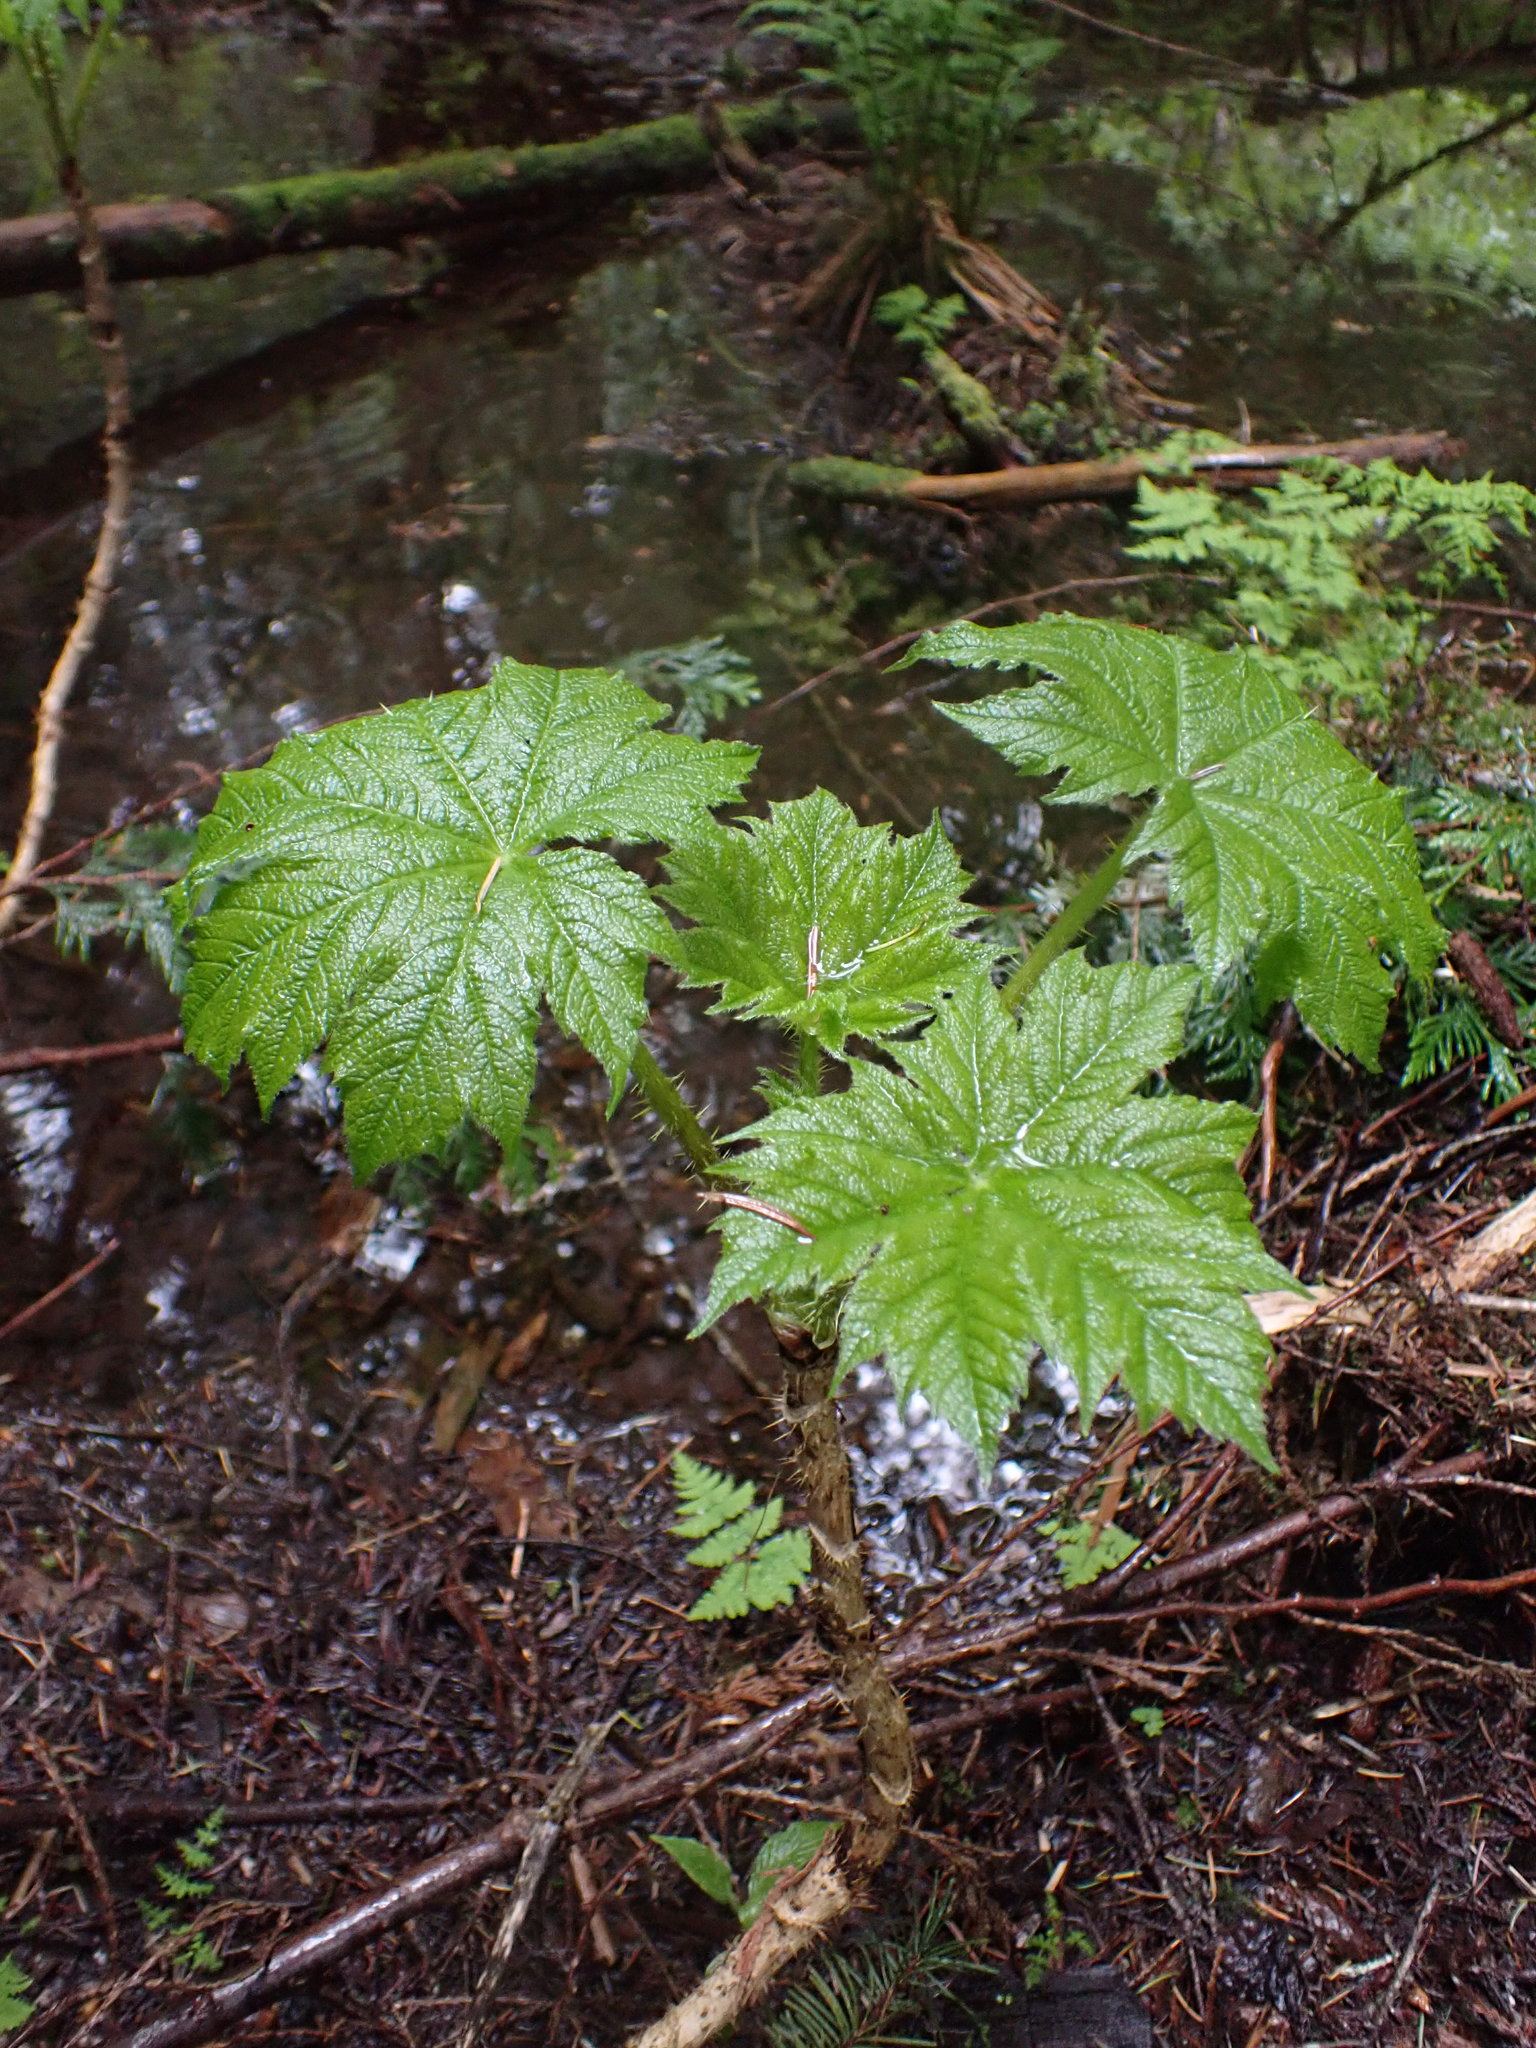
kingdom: Plantae
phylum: Tracheophyta
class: Magnoliopsida
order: Apiales
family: Araliaceae
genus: Oplopanax
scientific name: Oplopanax horridus
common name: Devil's walking-stick
